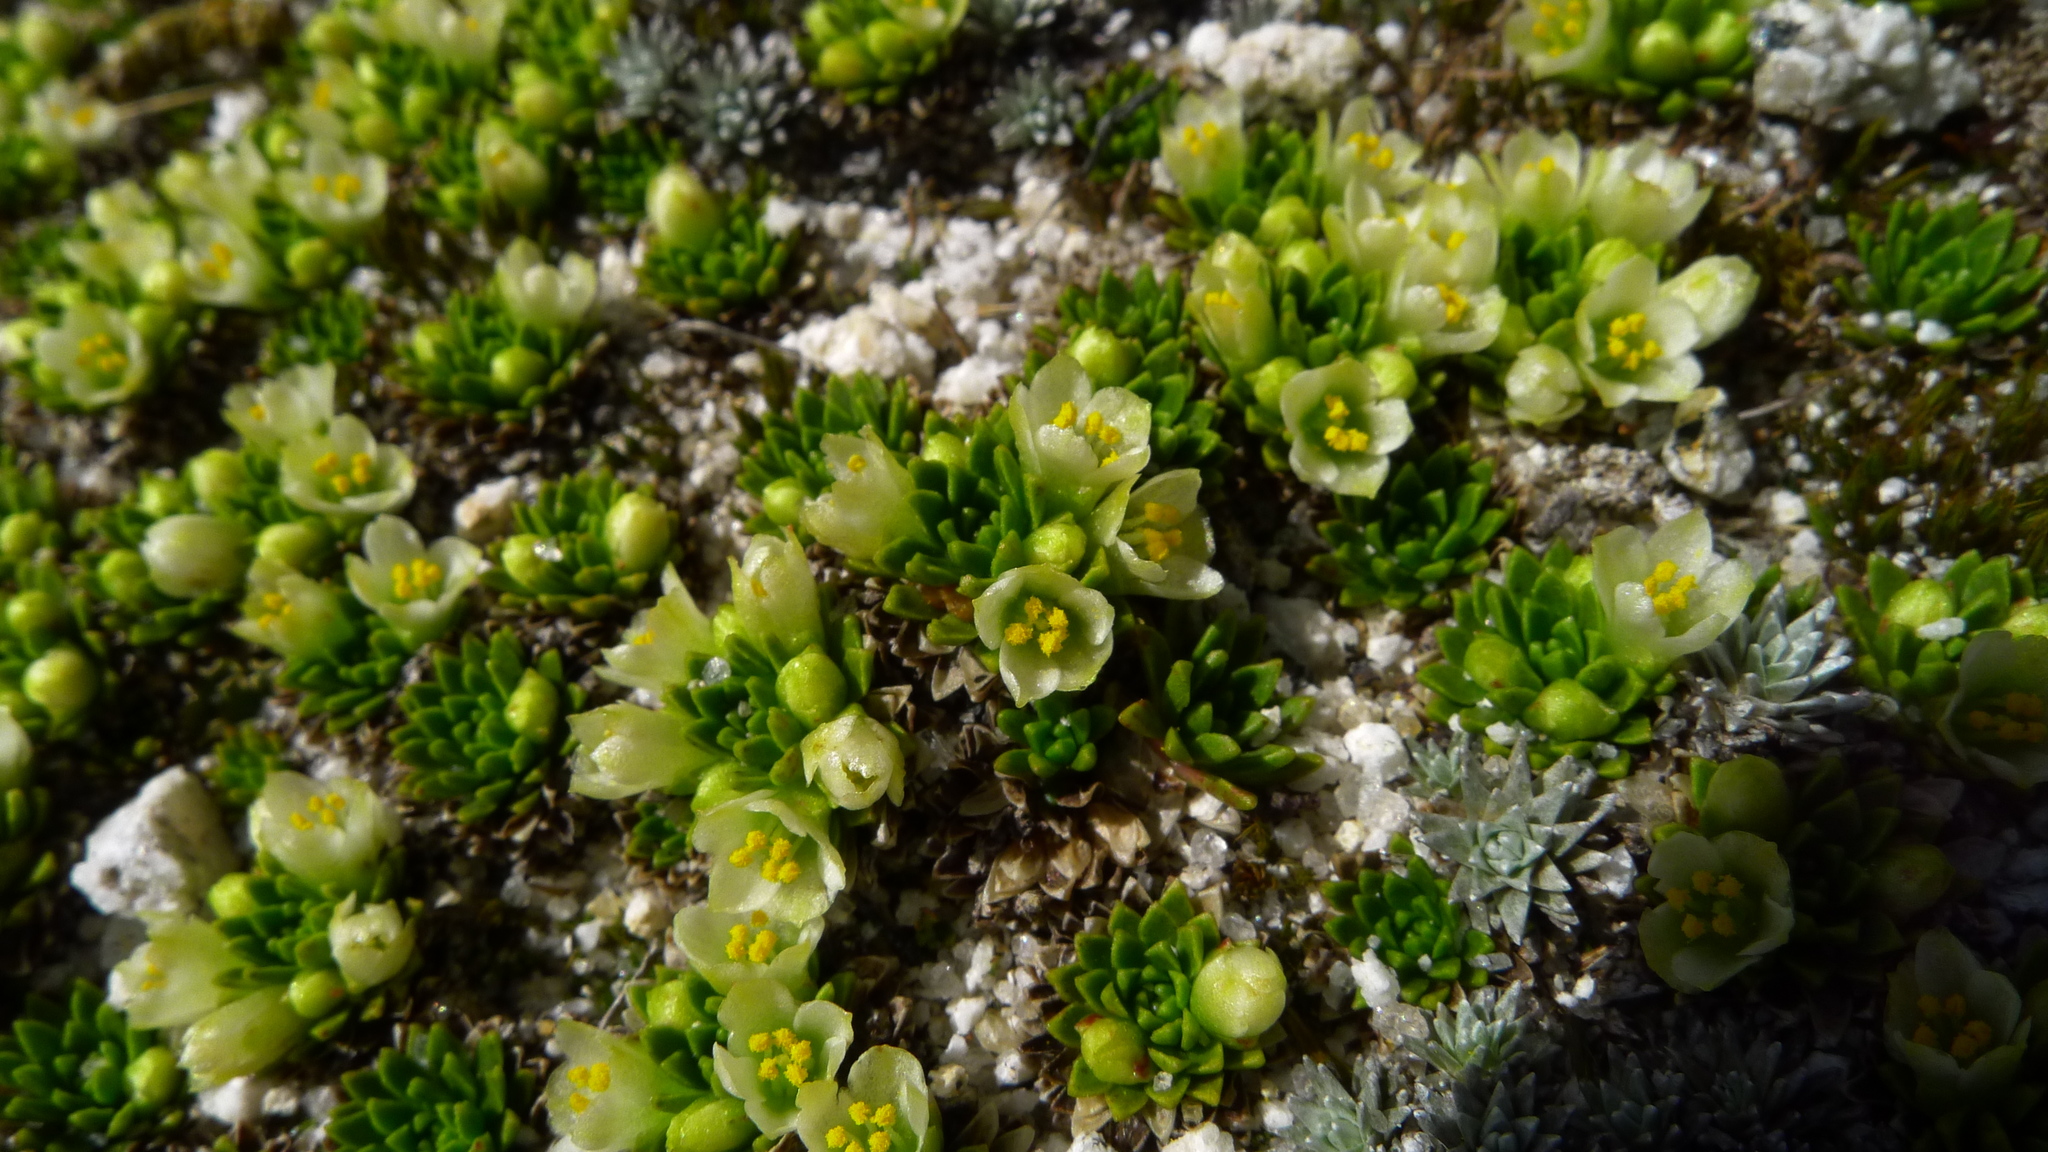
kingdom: Plantae
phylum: Tracheophyta
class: Magnoliopsida
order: Caryophyllales
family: Montiaceae
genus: Hectorella
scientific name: Hectorella caespitosa
